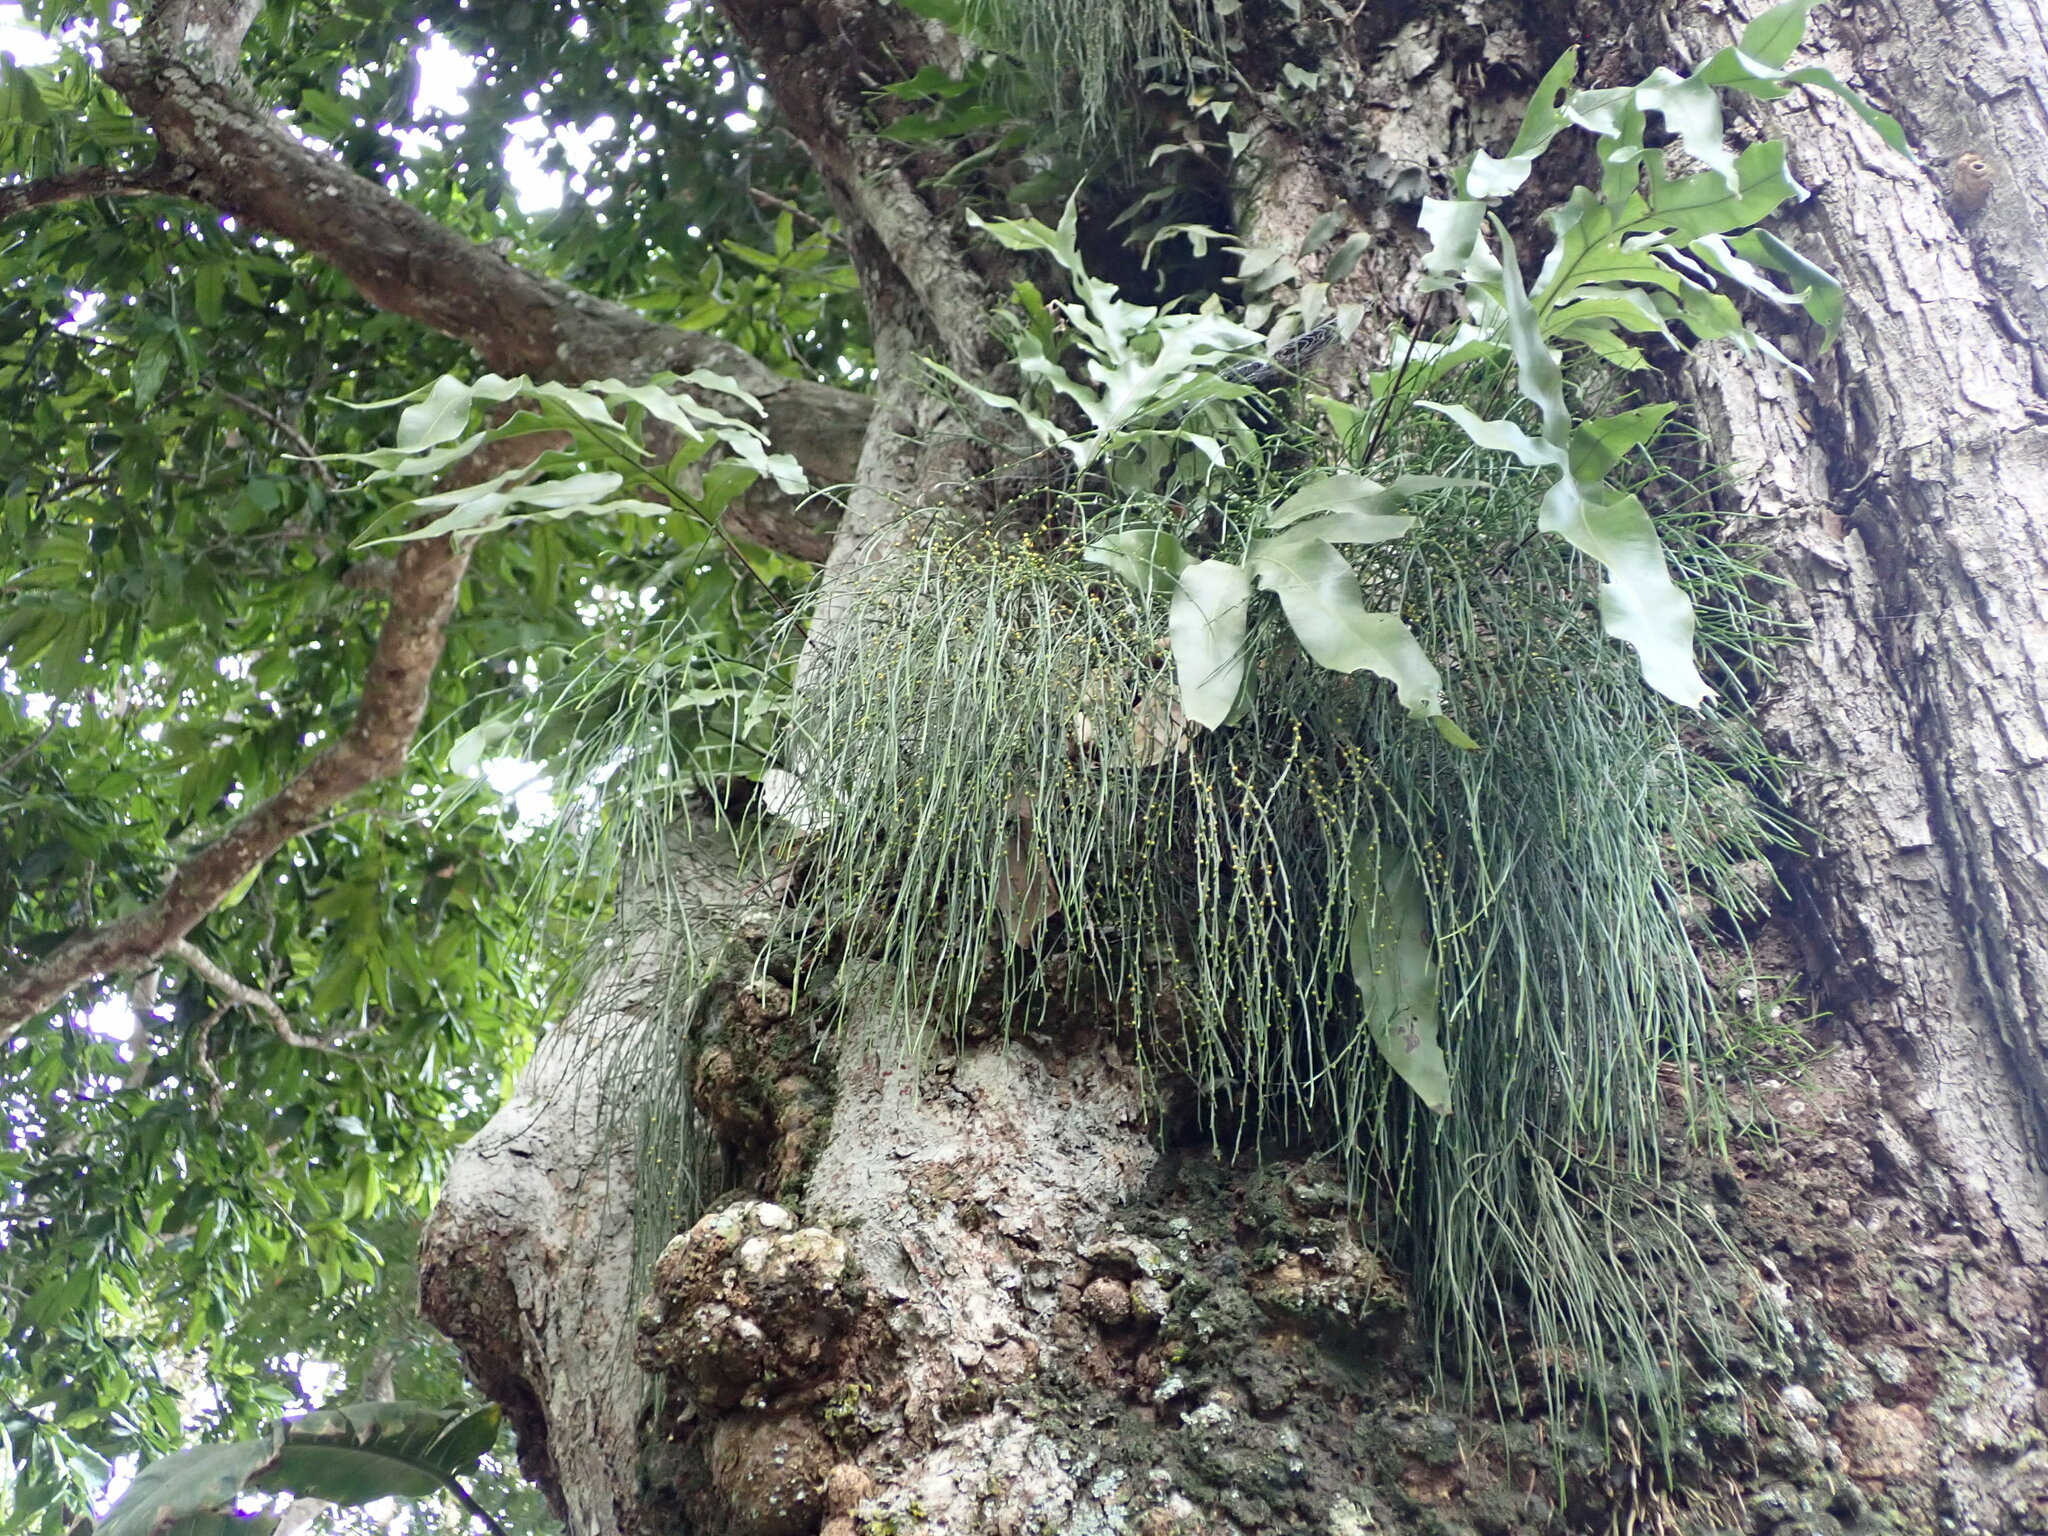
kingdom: Plantae
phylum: Tracheophyta
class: Polypodiopsida
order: Psilotales
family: Psilotaceae
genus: Psilotum
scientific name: Psilotum nudum
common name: Skeleton fork fern
